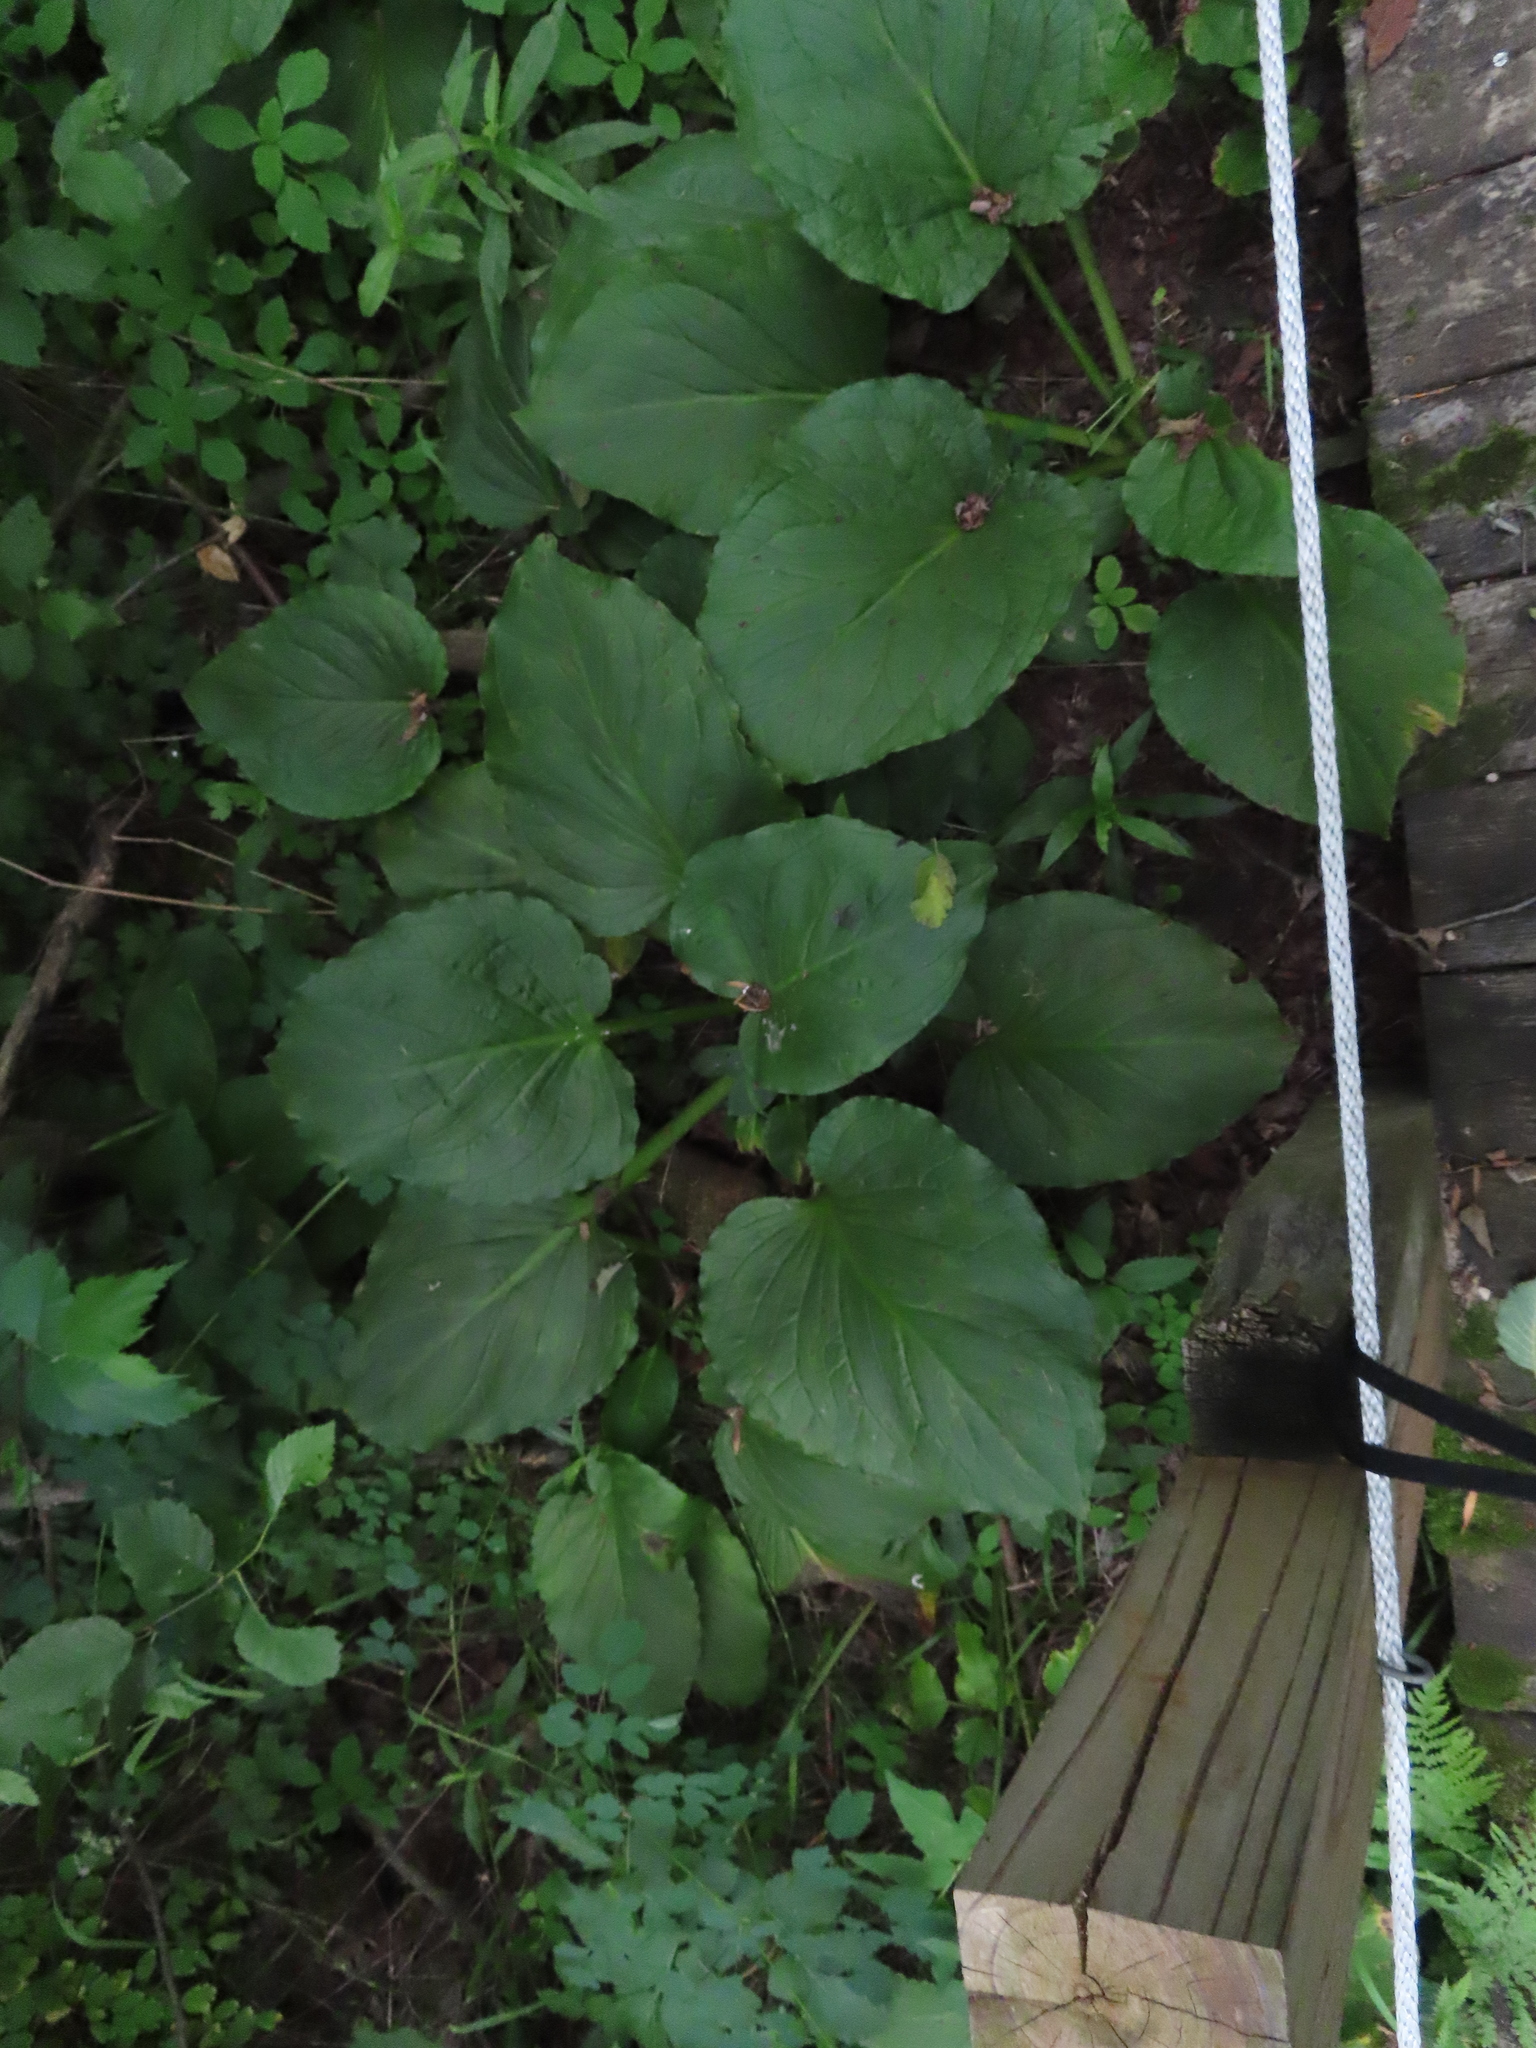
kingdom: Plantae
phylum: Tracheophyta
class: Liliopsida
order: Alismatales
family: Araceae
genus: Symplocarpus
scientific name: Symplocarpus foetidus
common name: Eastern skunk cabbage
